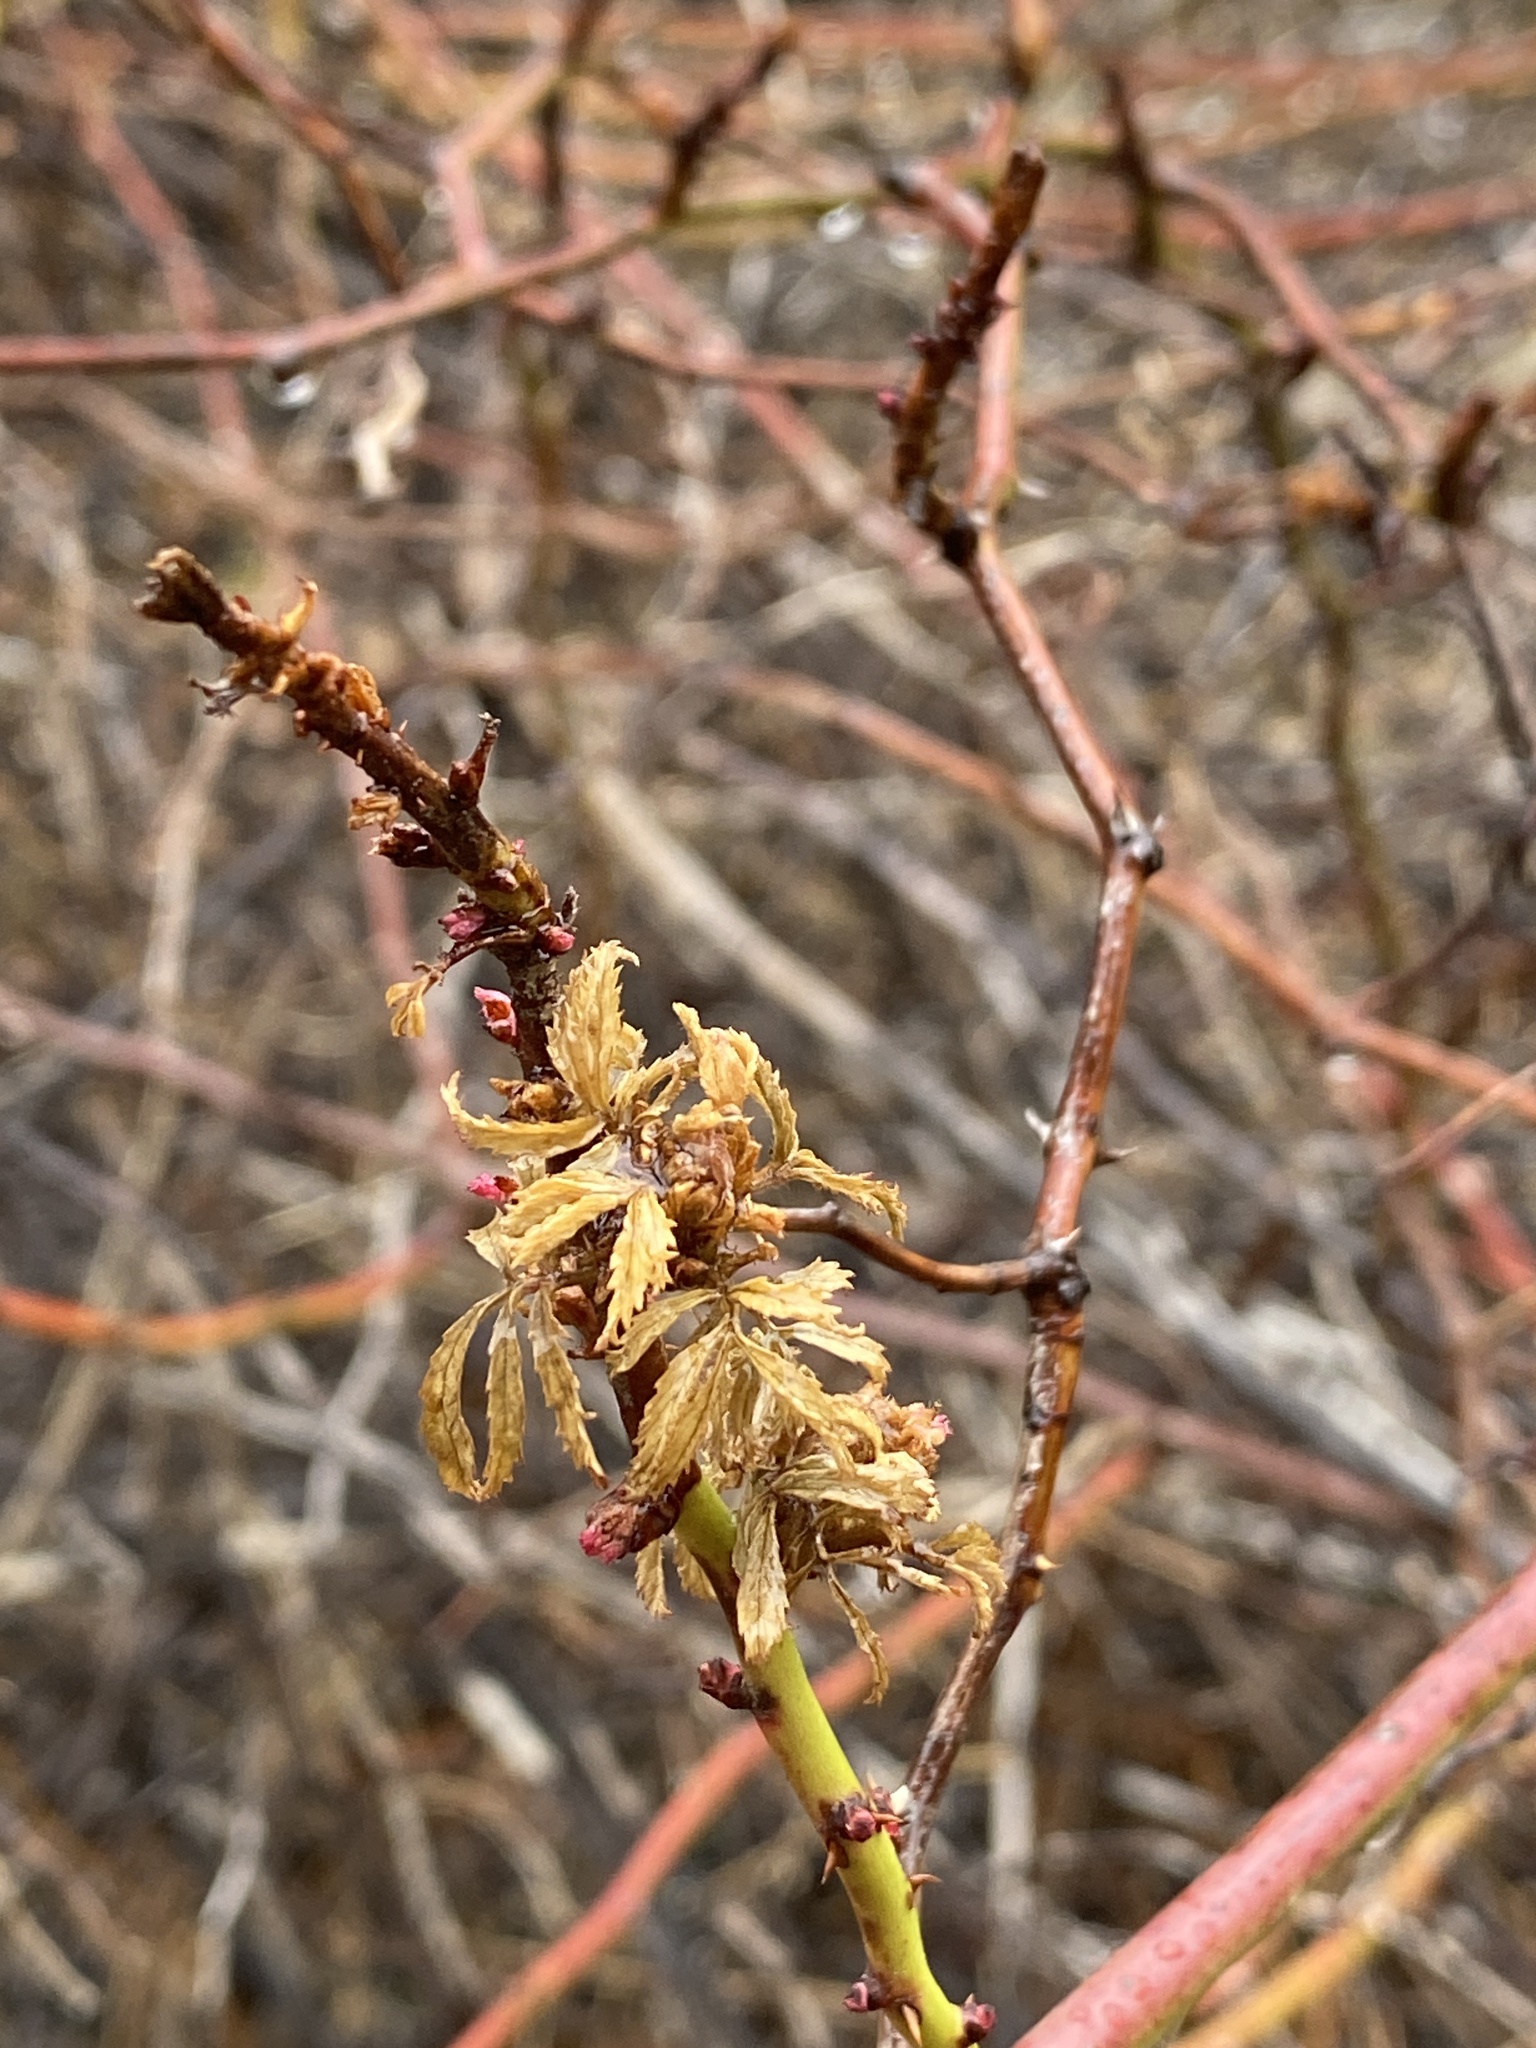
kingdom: Viruses
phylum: Negarnaviricota
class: Ellioviricetes
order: Bunyavirales
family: Fimoviridae
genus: Emaravirus
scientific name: Emaravirus rosae
